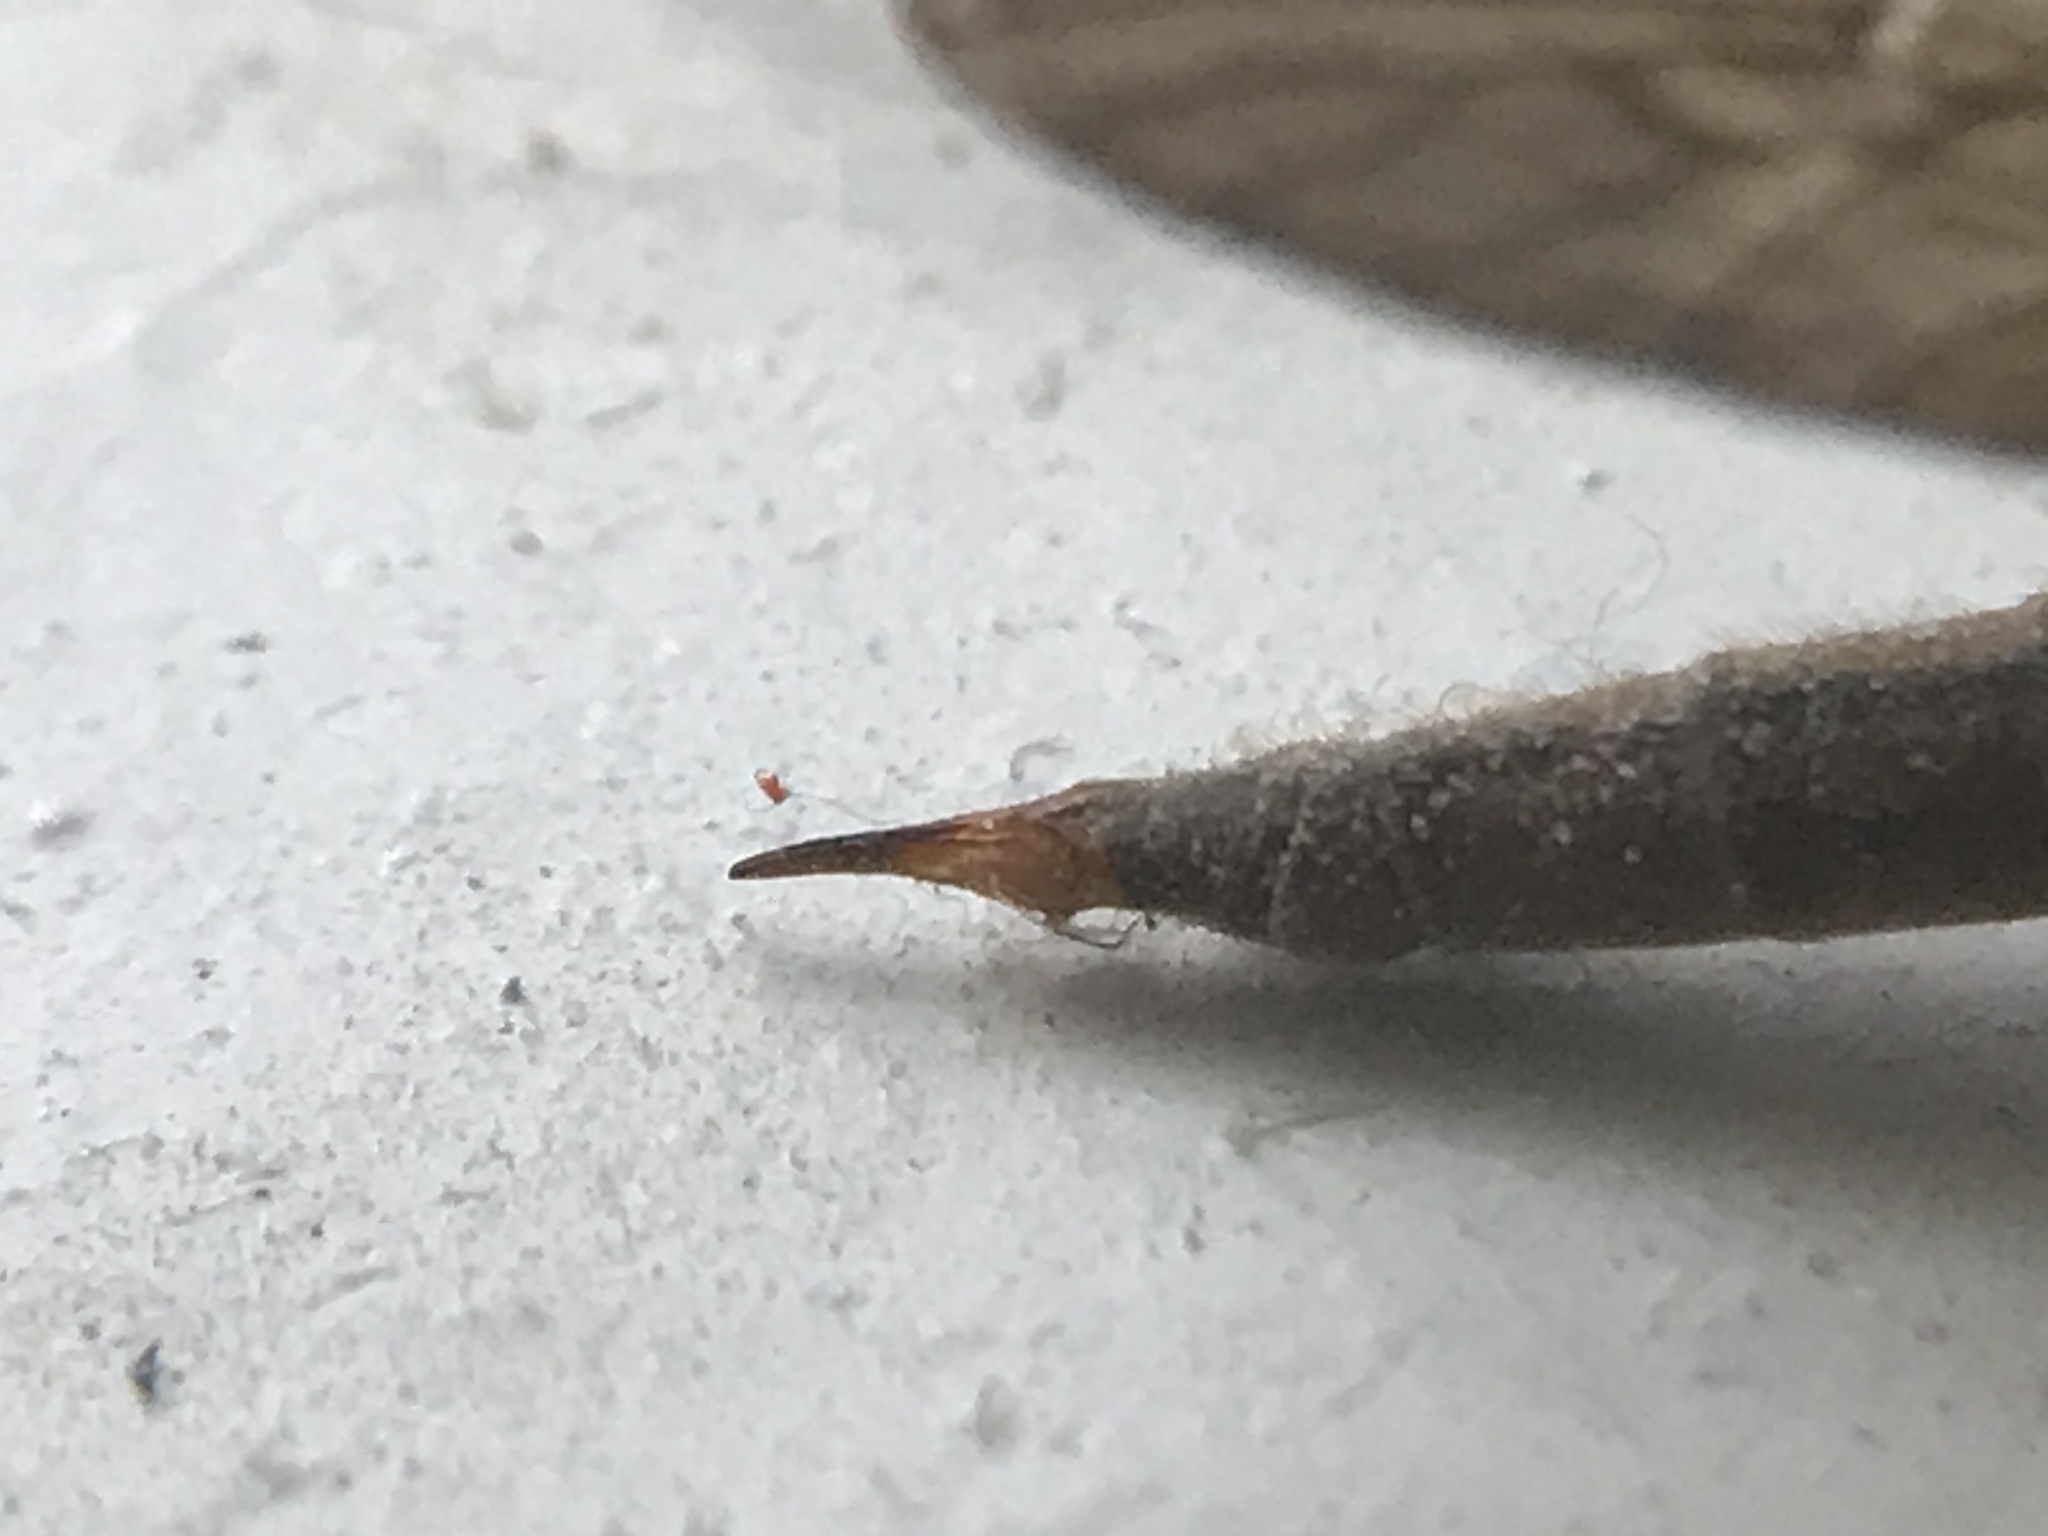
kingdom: Animalia
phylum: Arthropoda
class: Insecta
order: Diptera
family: Tipulidae
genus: Tipula
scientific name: Tipula oleracea
